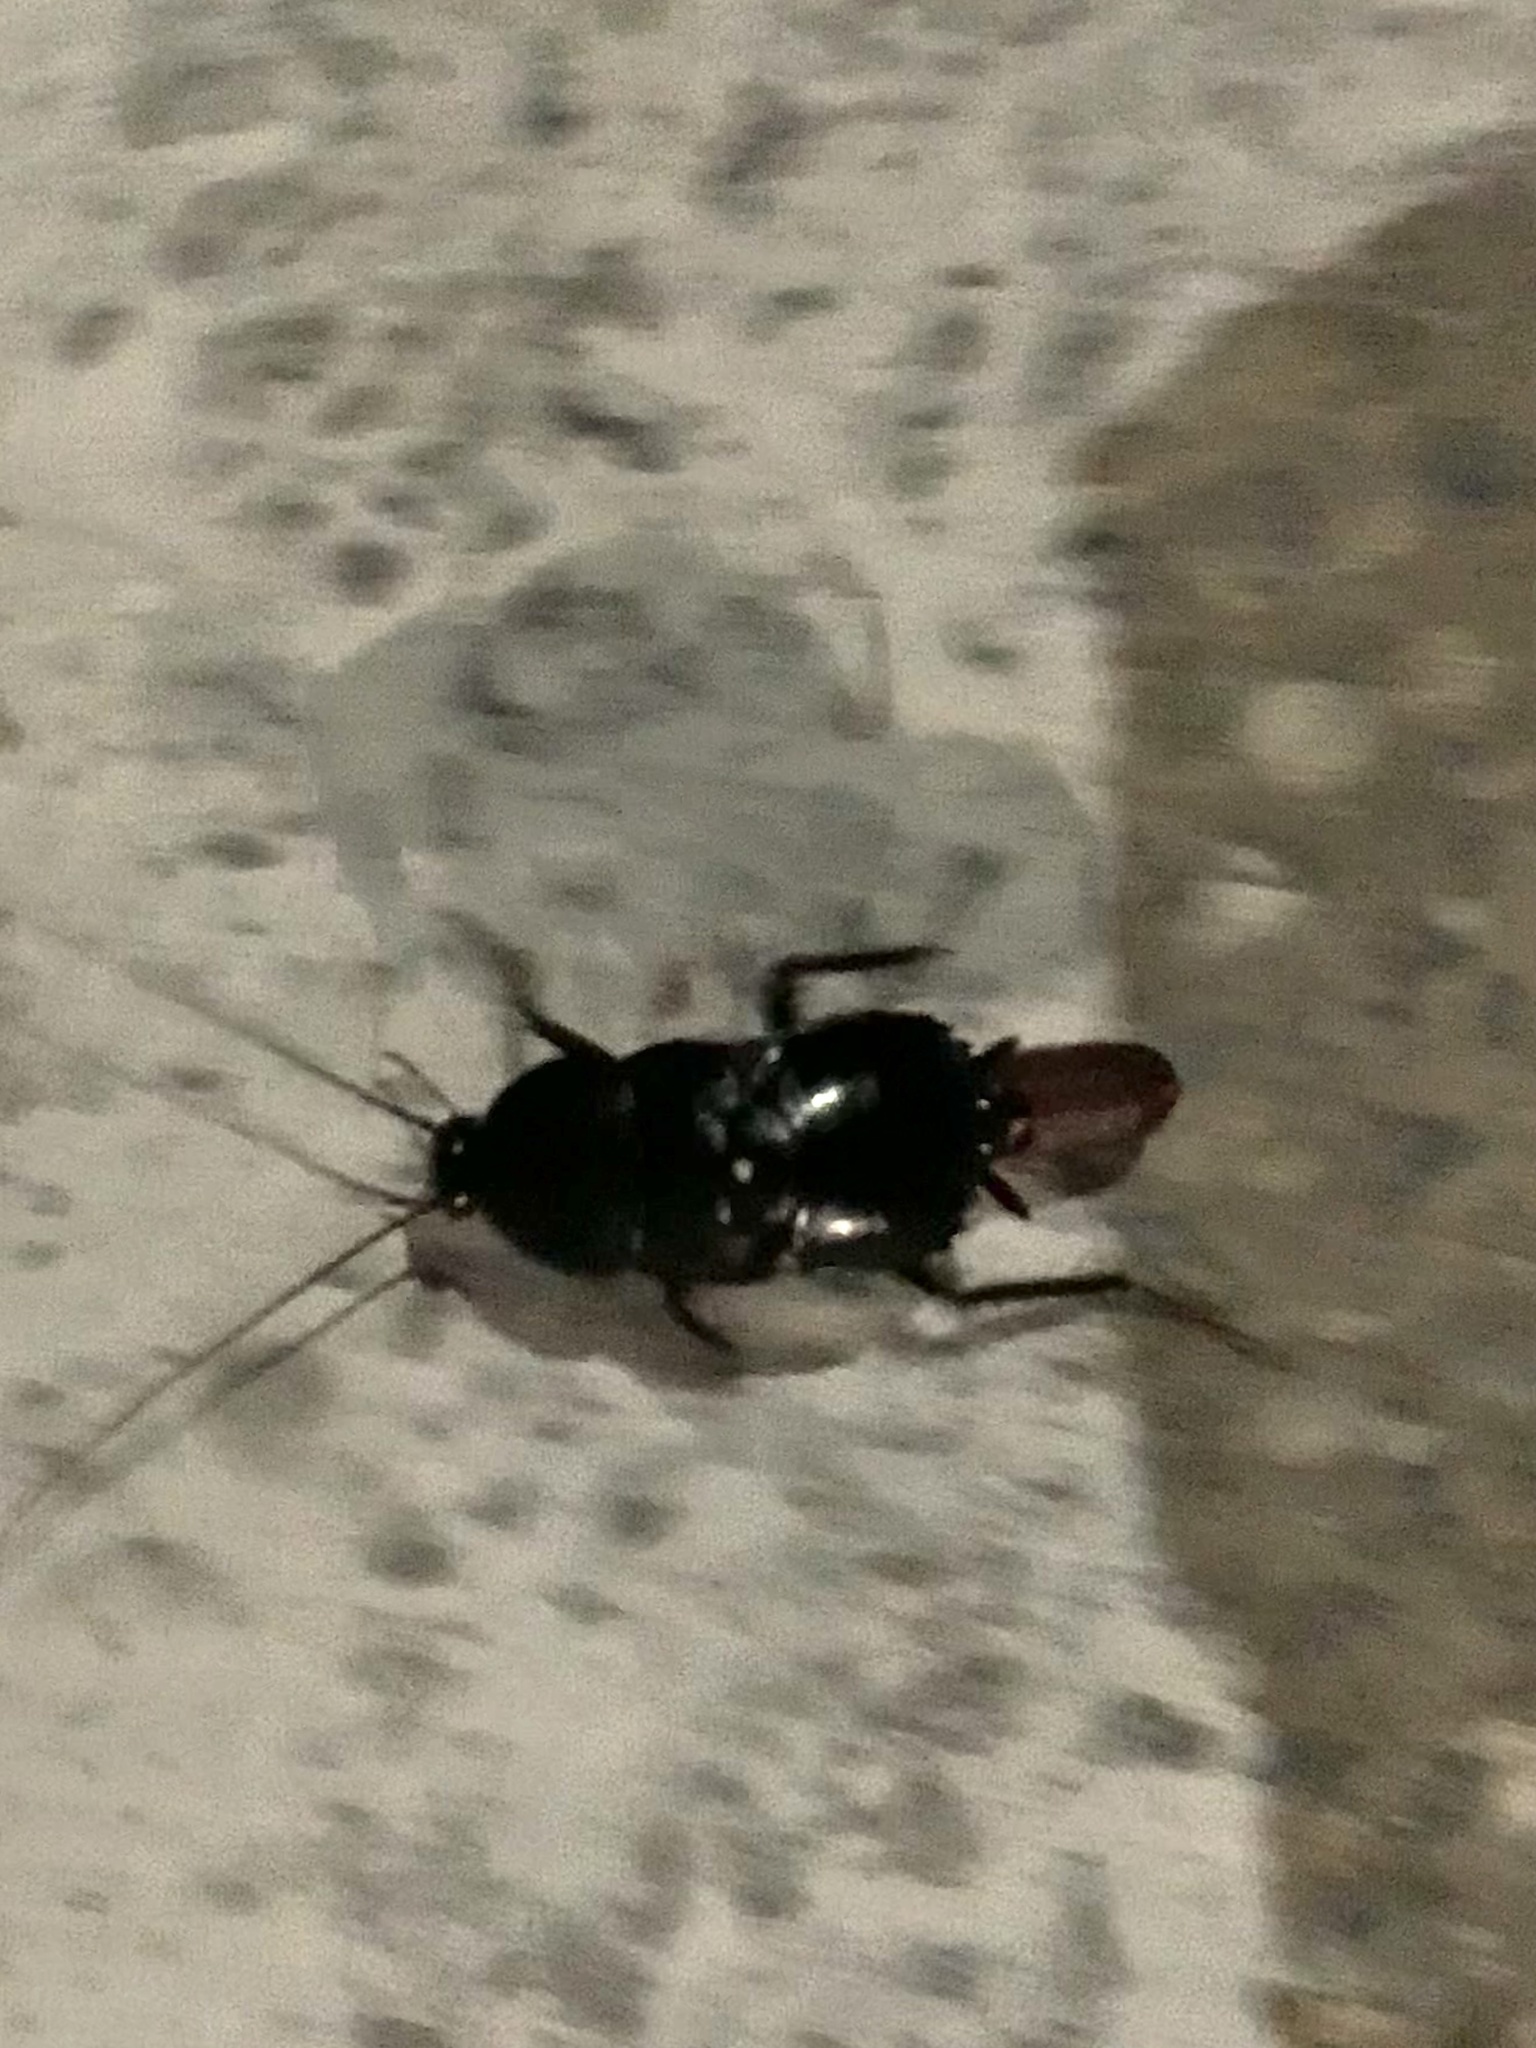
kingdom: Animalia
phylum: Arthropoda
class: Insecta
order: Blattodea
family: Blattidae
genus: Blatta
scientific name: Blatta orientalis
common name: Oriental cockroach
